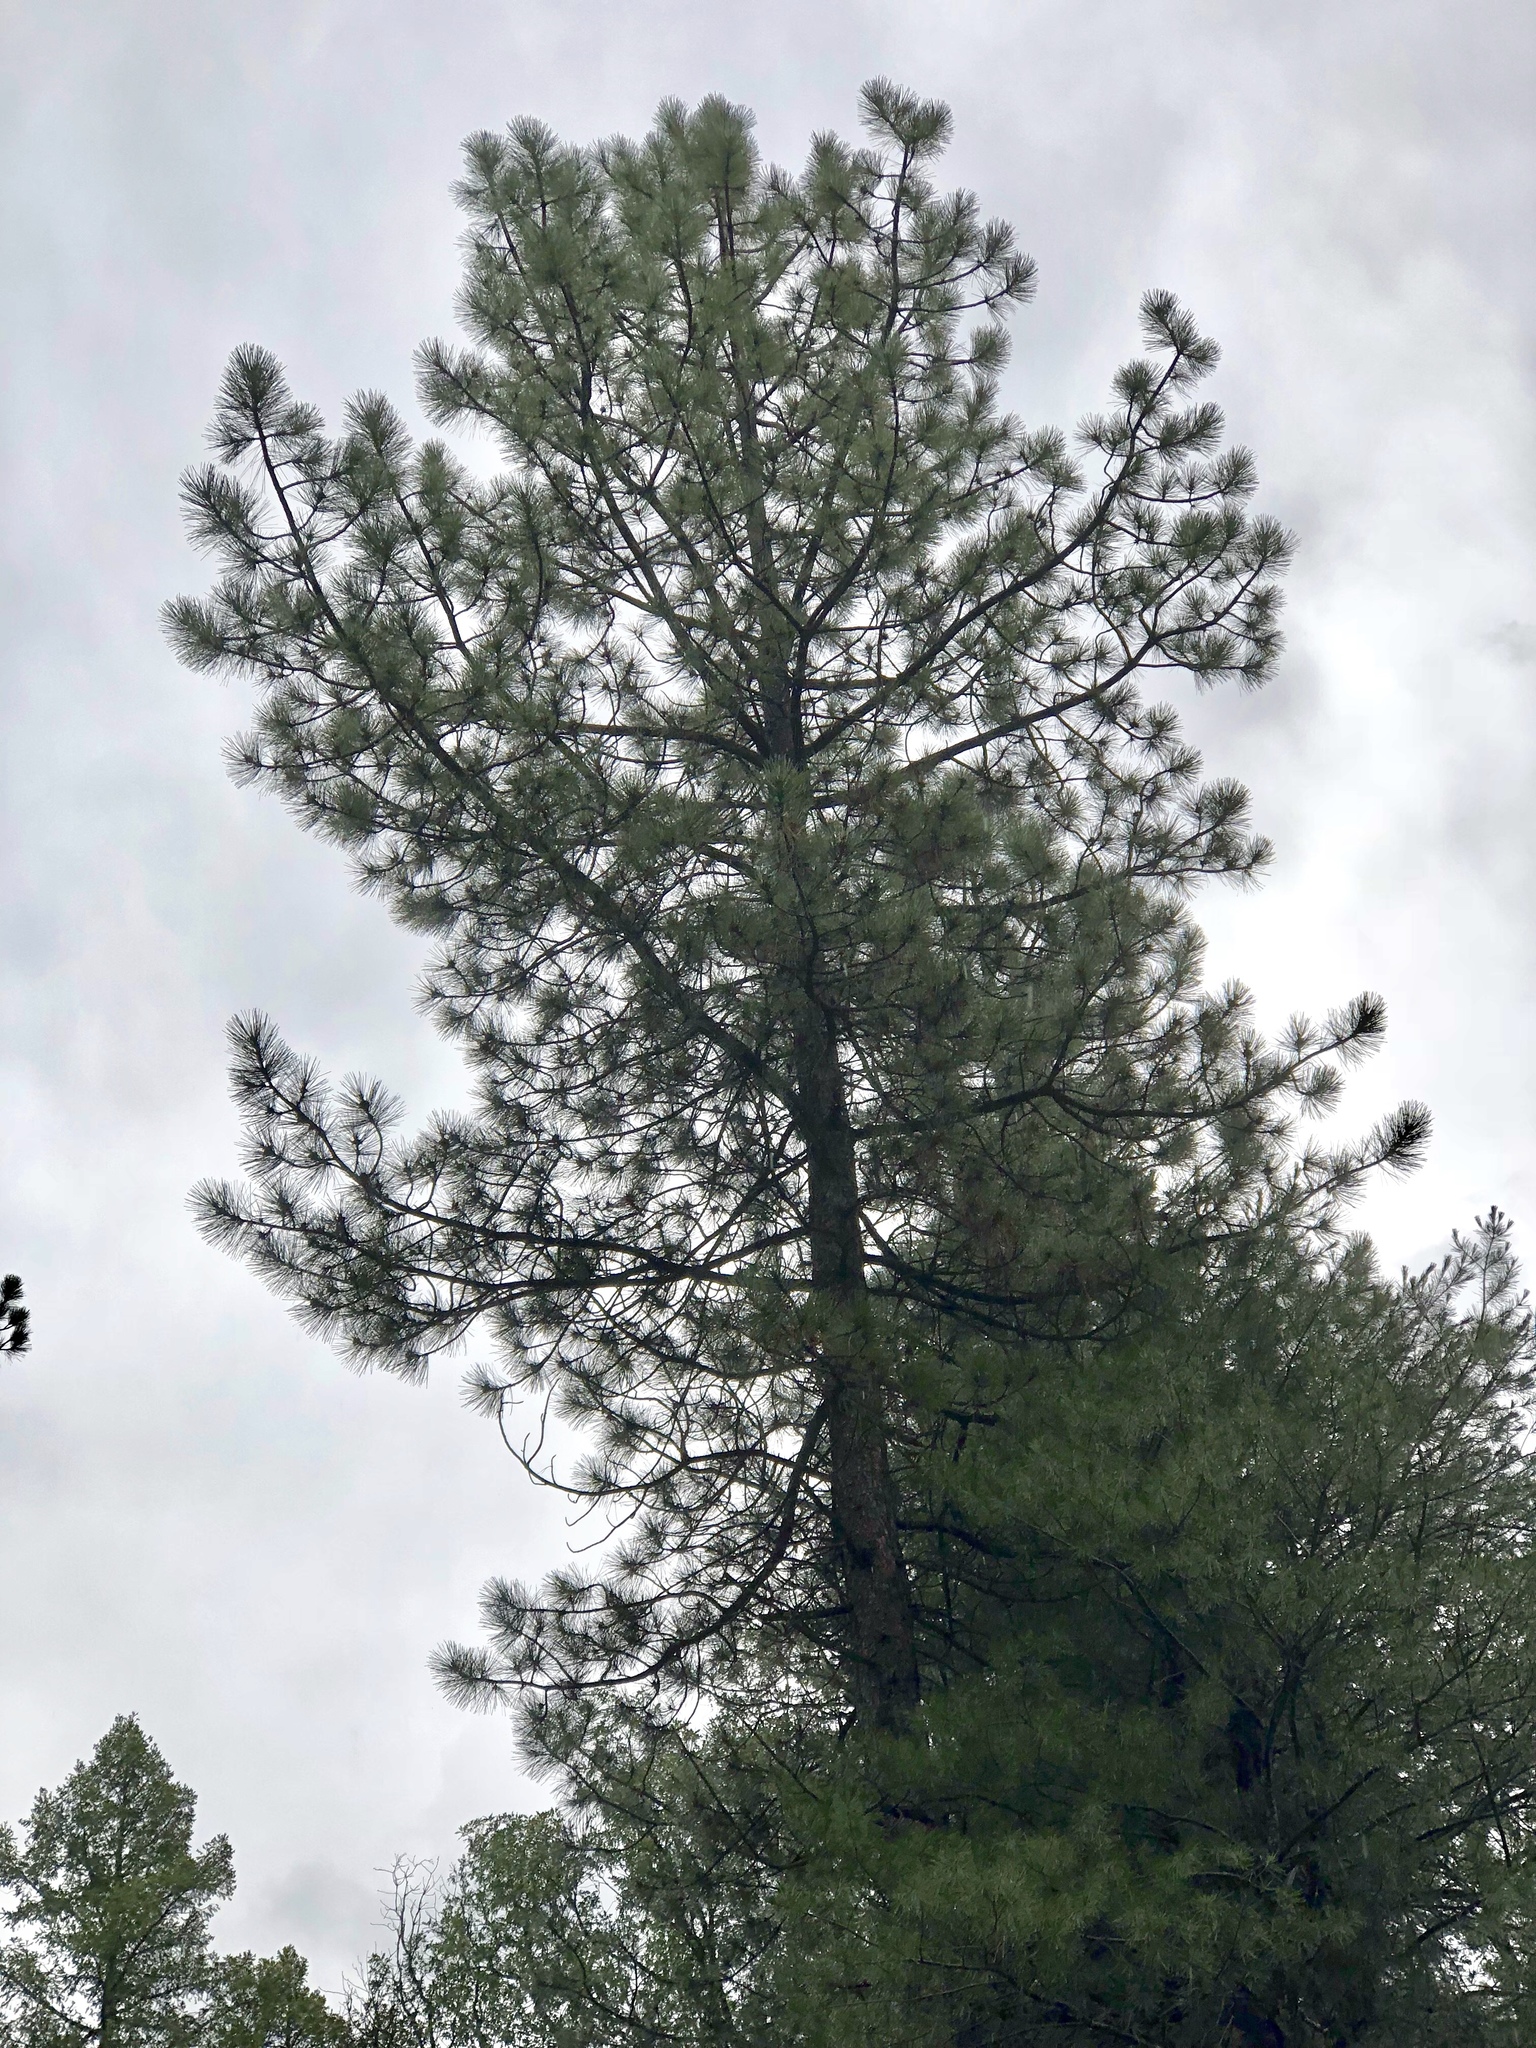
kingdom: Plantae
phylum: Tracheophyta
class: Pinopsida
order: Pinales
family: Pinaceae
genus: Pinus
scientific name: Pinus ponderosa
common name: Western yellow-pine
